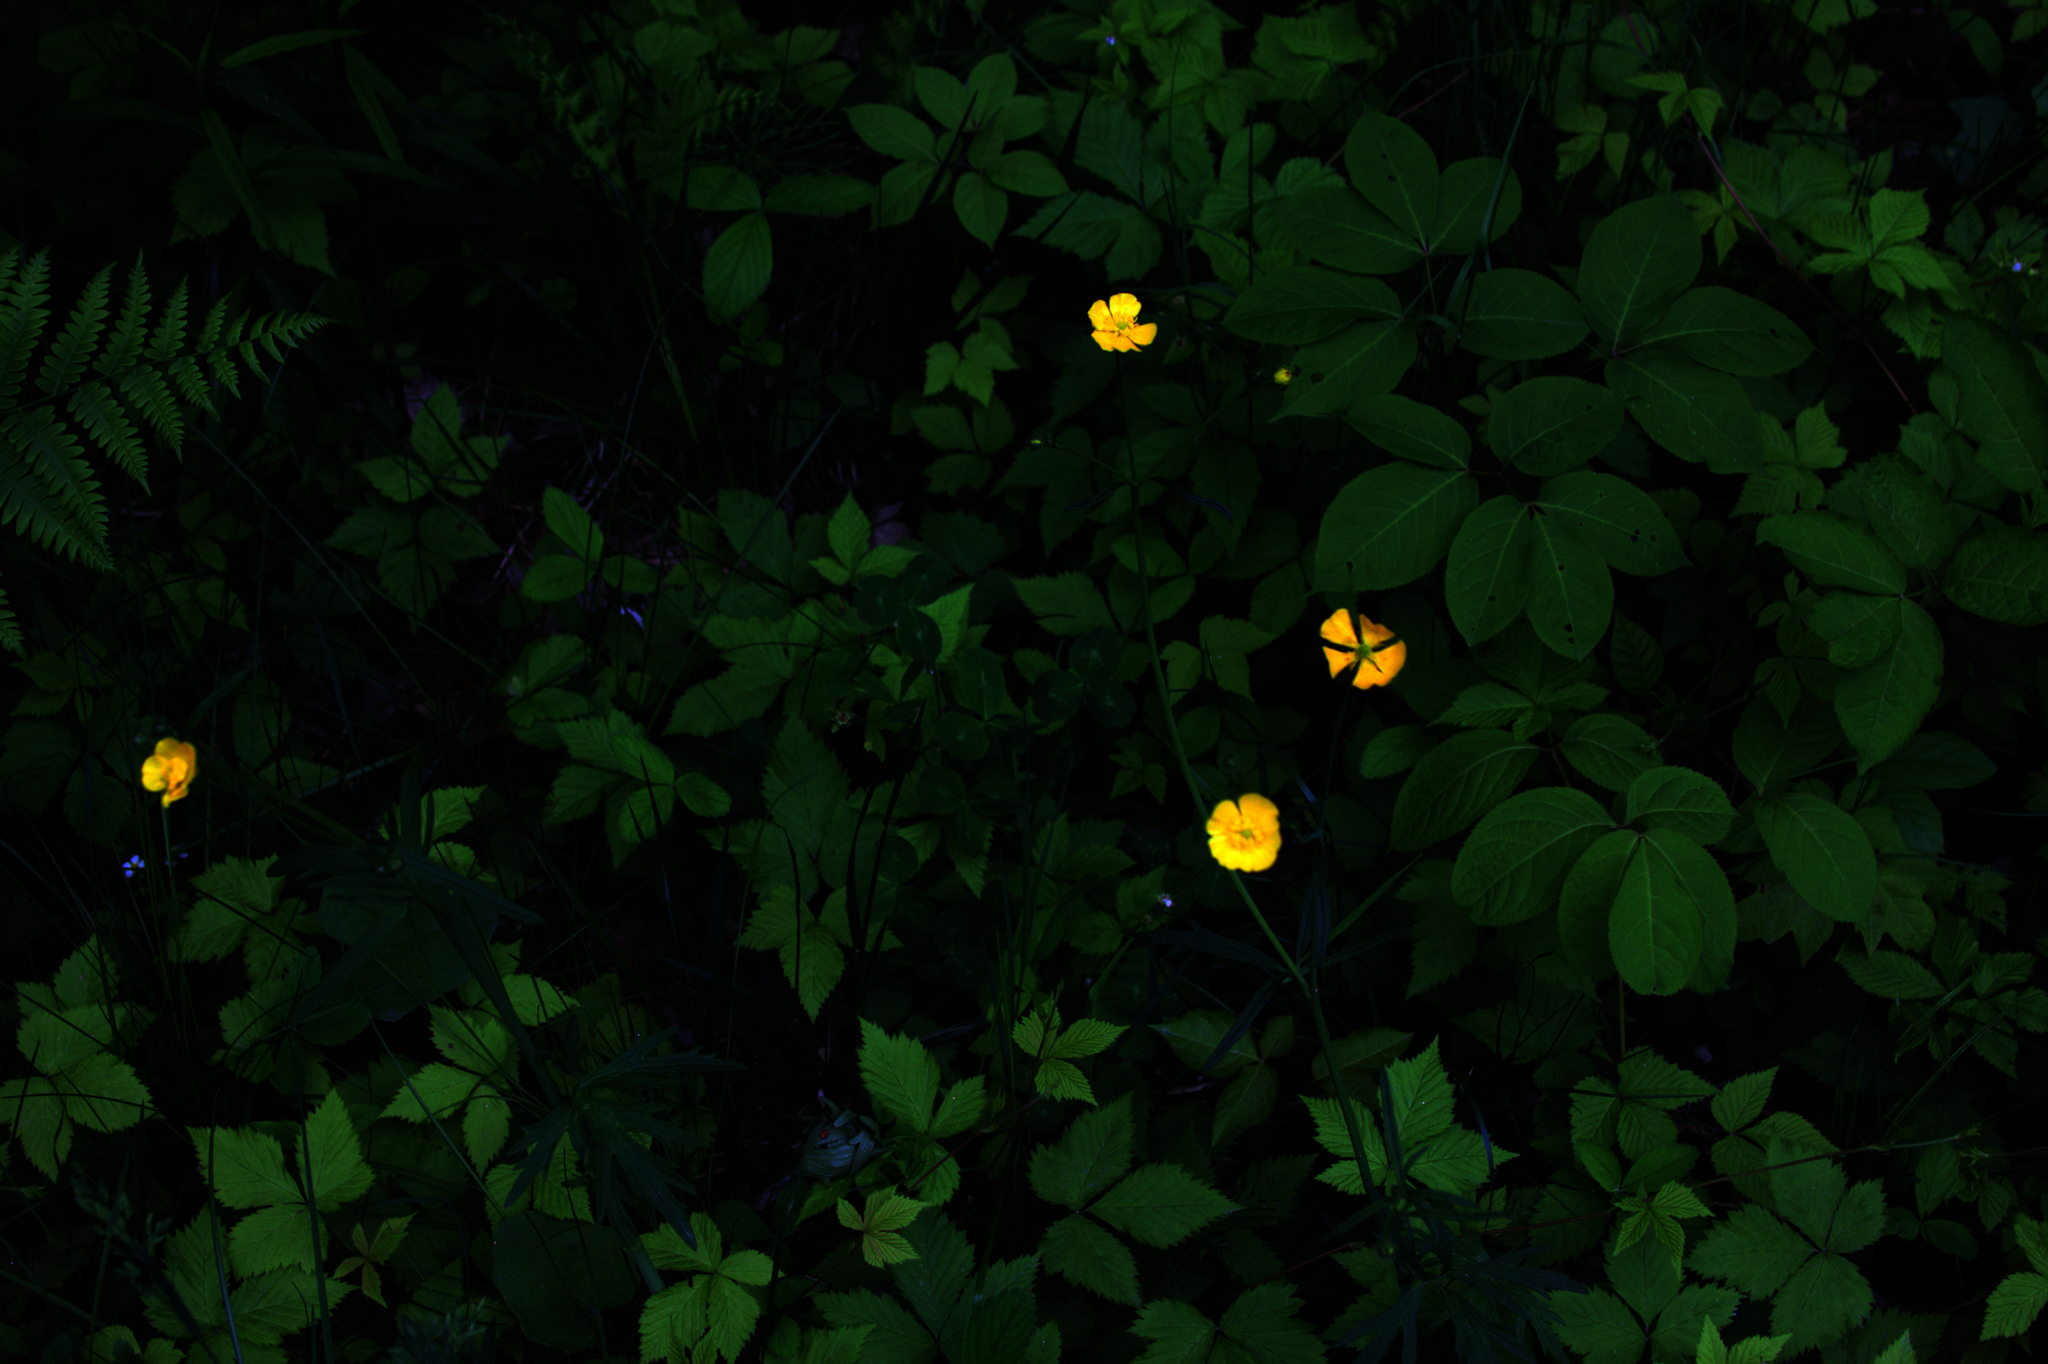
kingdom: Plantae
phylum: Tracheophyta
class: Magnoliopsida
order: Apiales
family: Araliaceae
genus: Aralia
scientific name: Aralia nudicaulis
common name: Wild sarsaparilla
